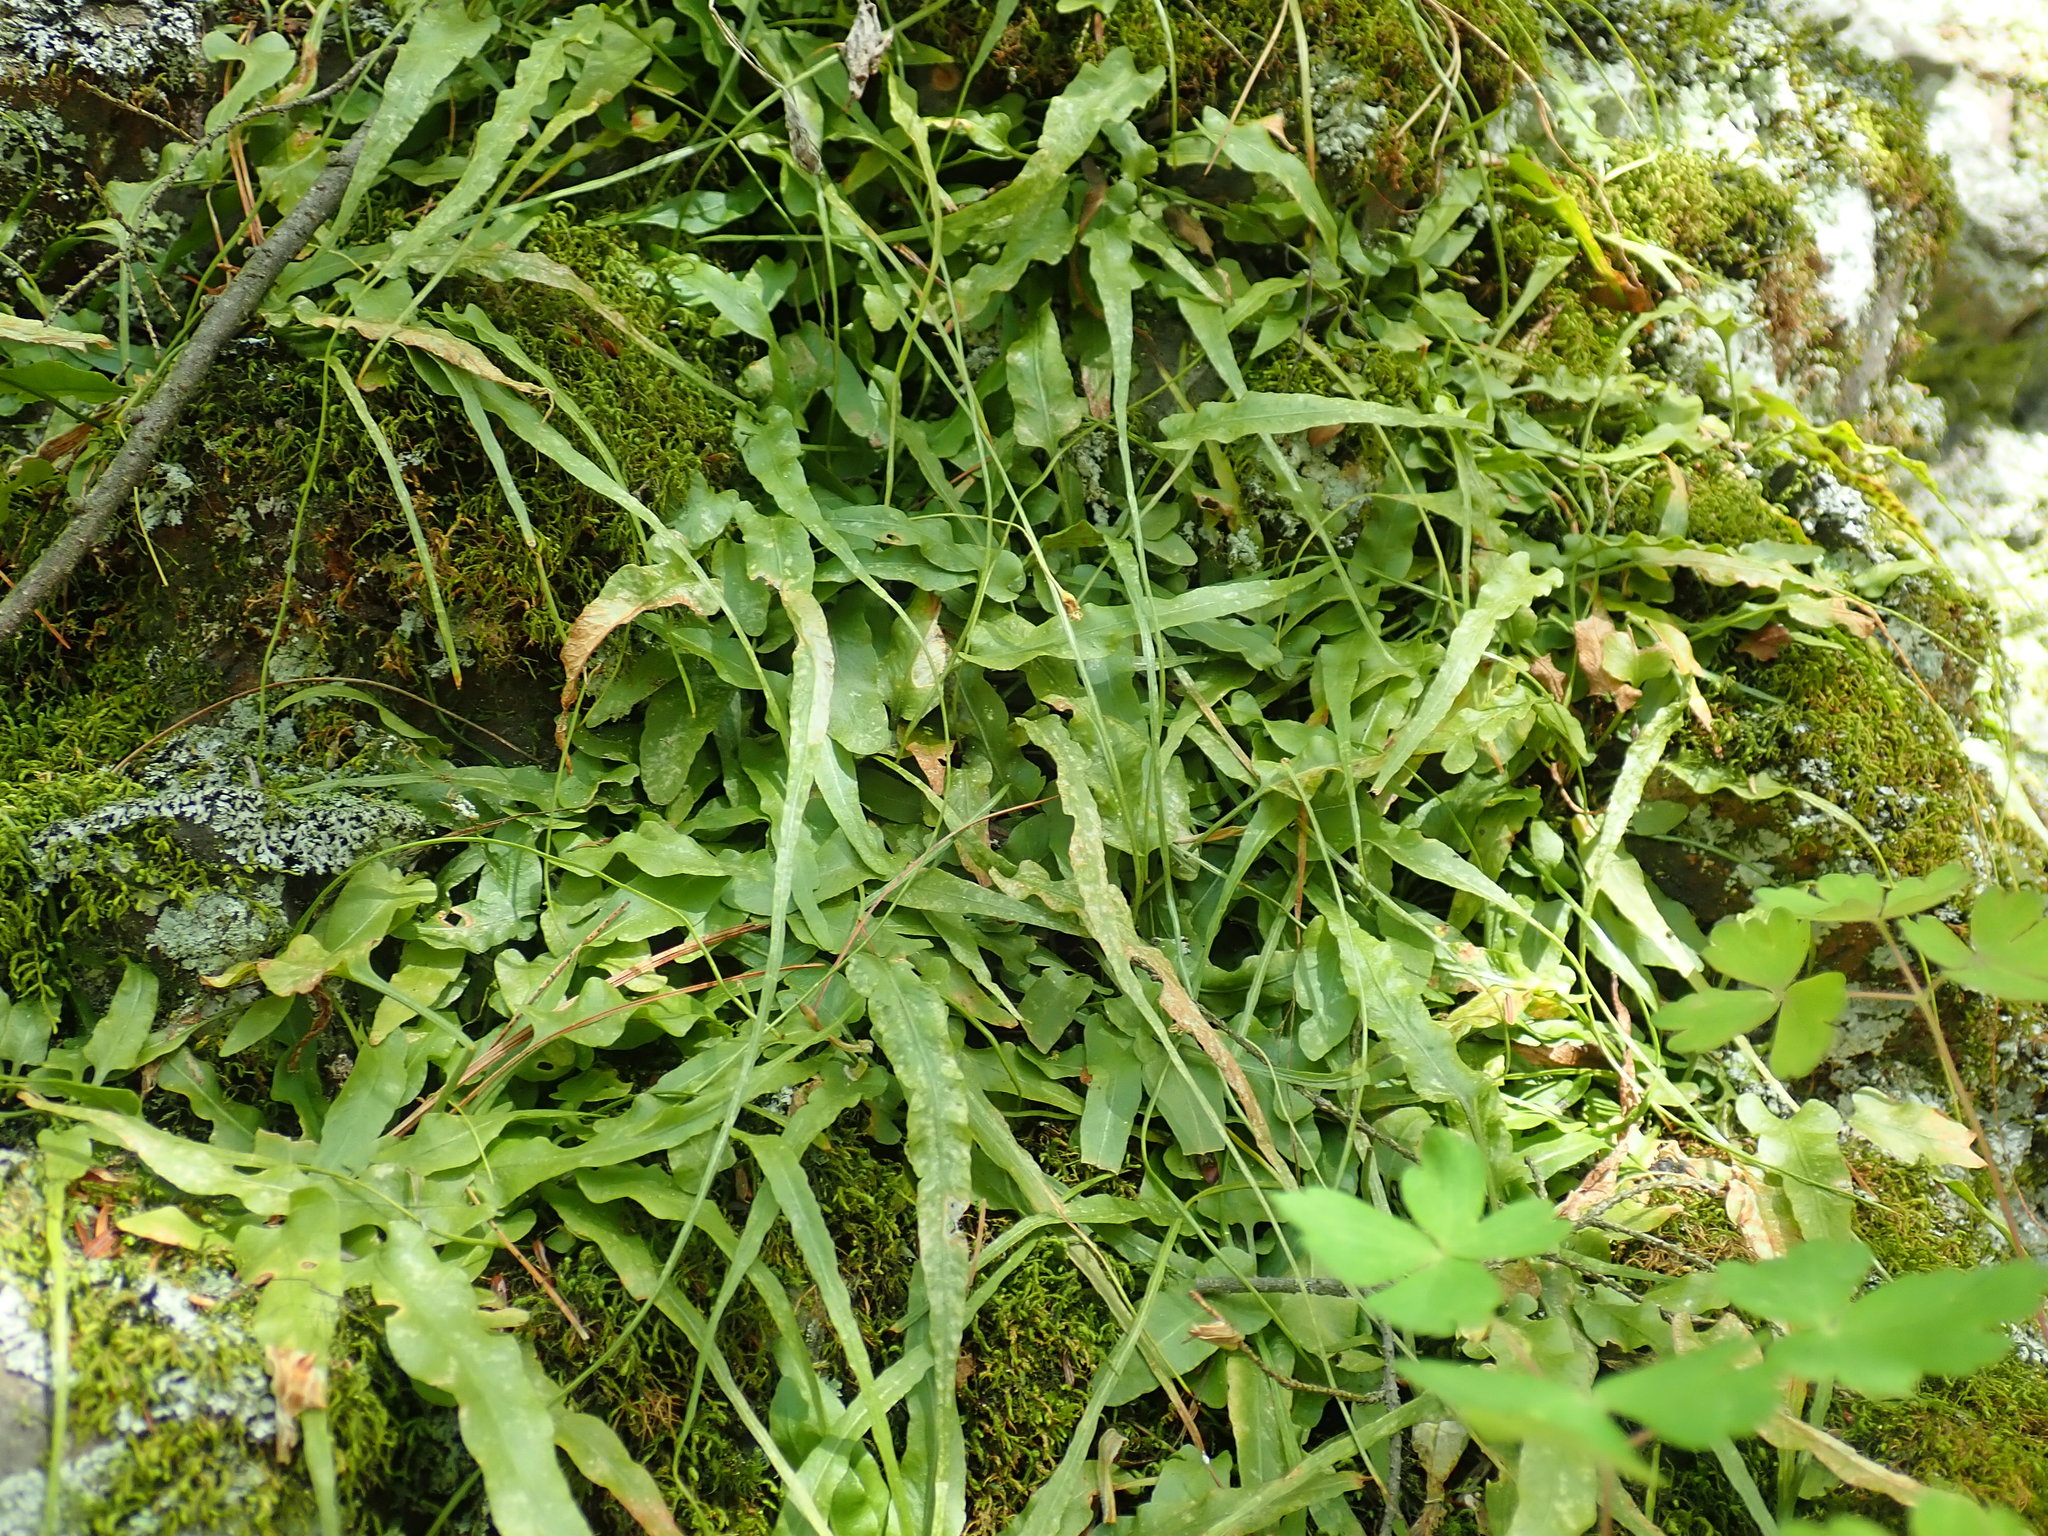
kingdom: Plantae
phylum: Tracheophyta
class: Polypodiopsida
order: Polypodiales
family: Aspleniaceae
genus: Asplenium
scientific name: Asplenium rhizophyllum
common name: Walking fern
